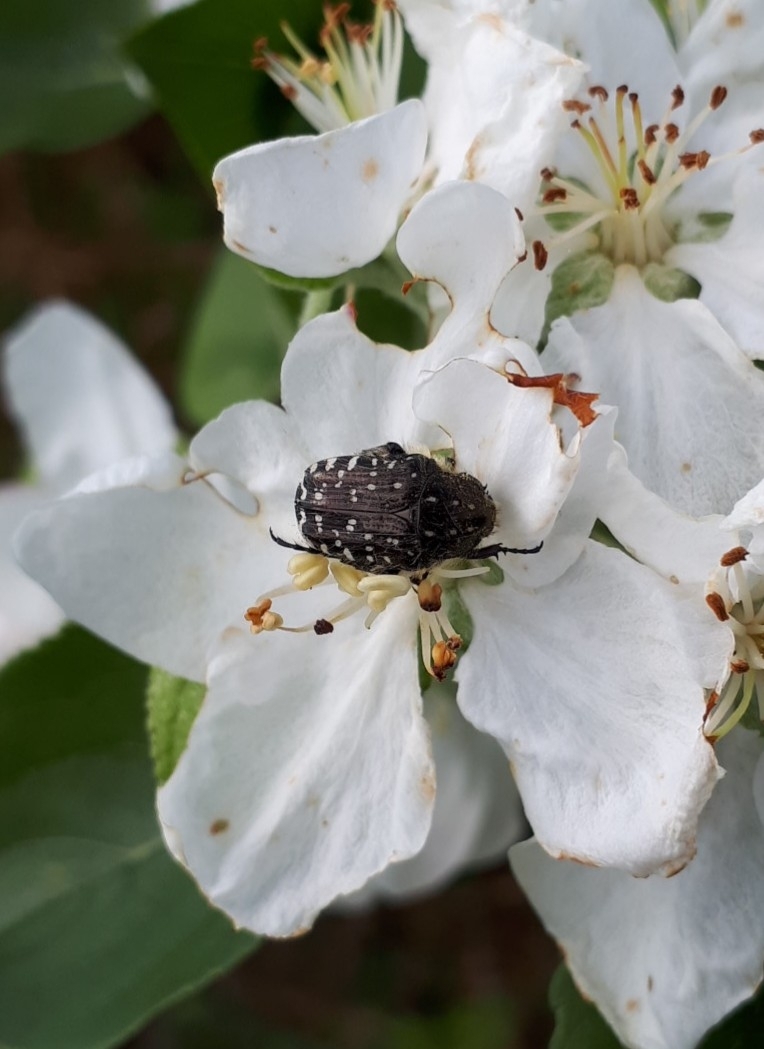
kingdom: Animalia
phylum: Arthropoda
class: Insecta
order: Coleoptera
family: Scarabaeidae
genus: Oxythyrea
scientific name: Oxythyrea funesta
